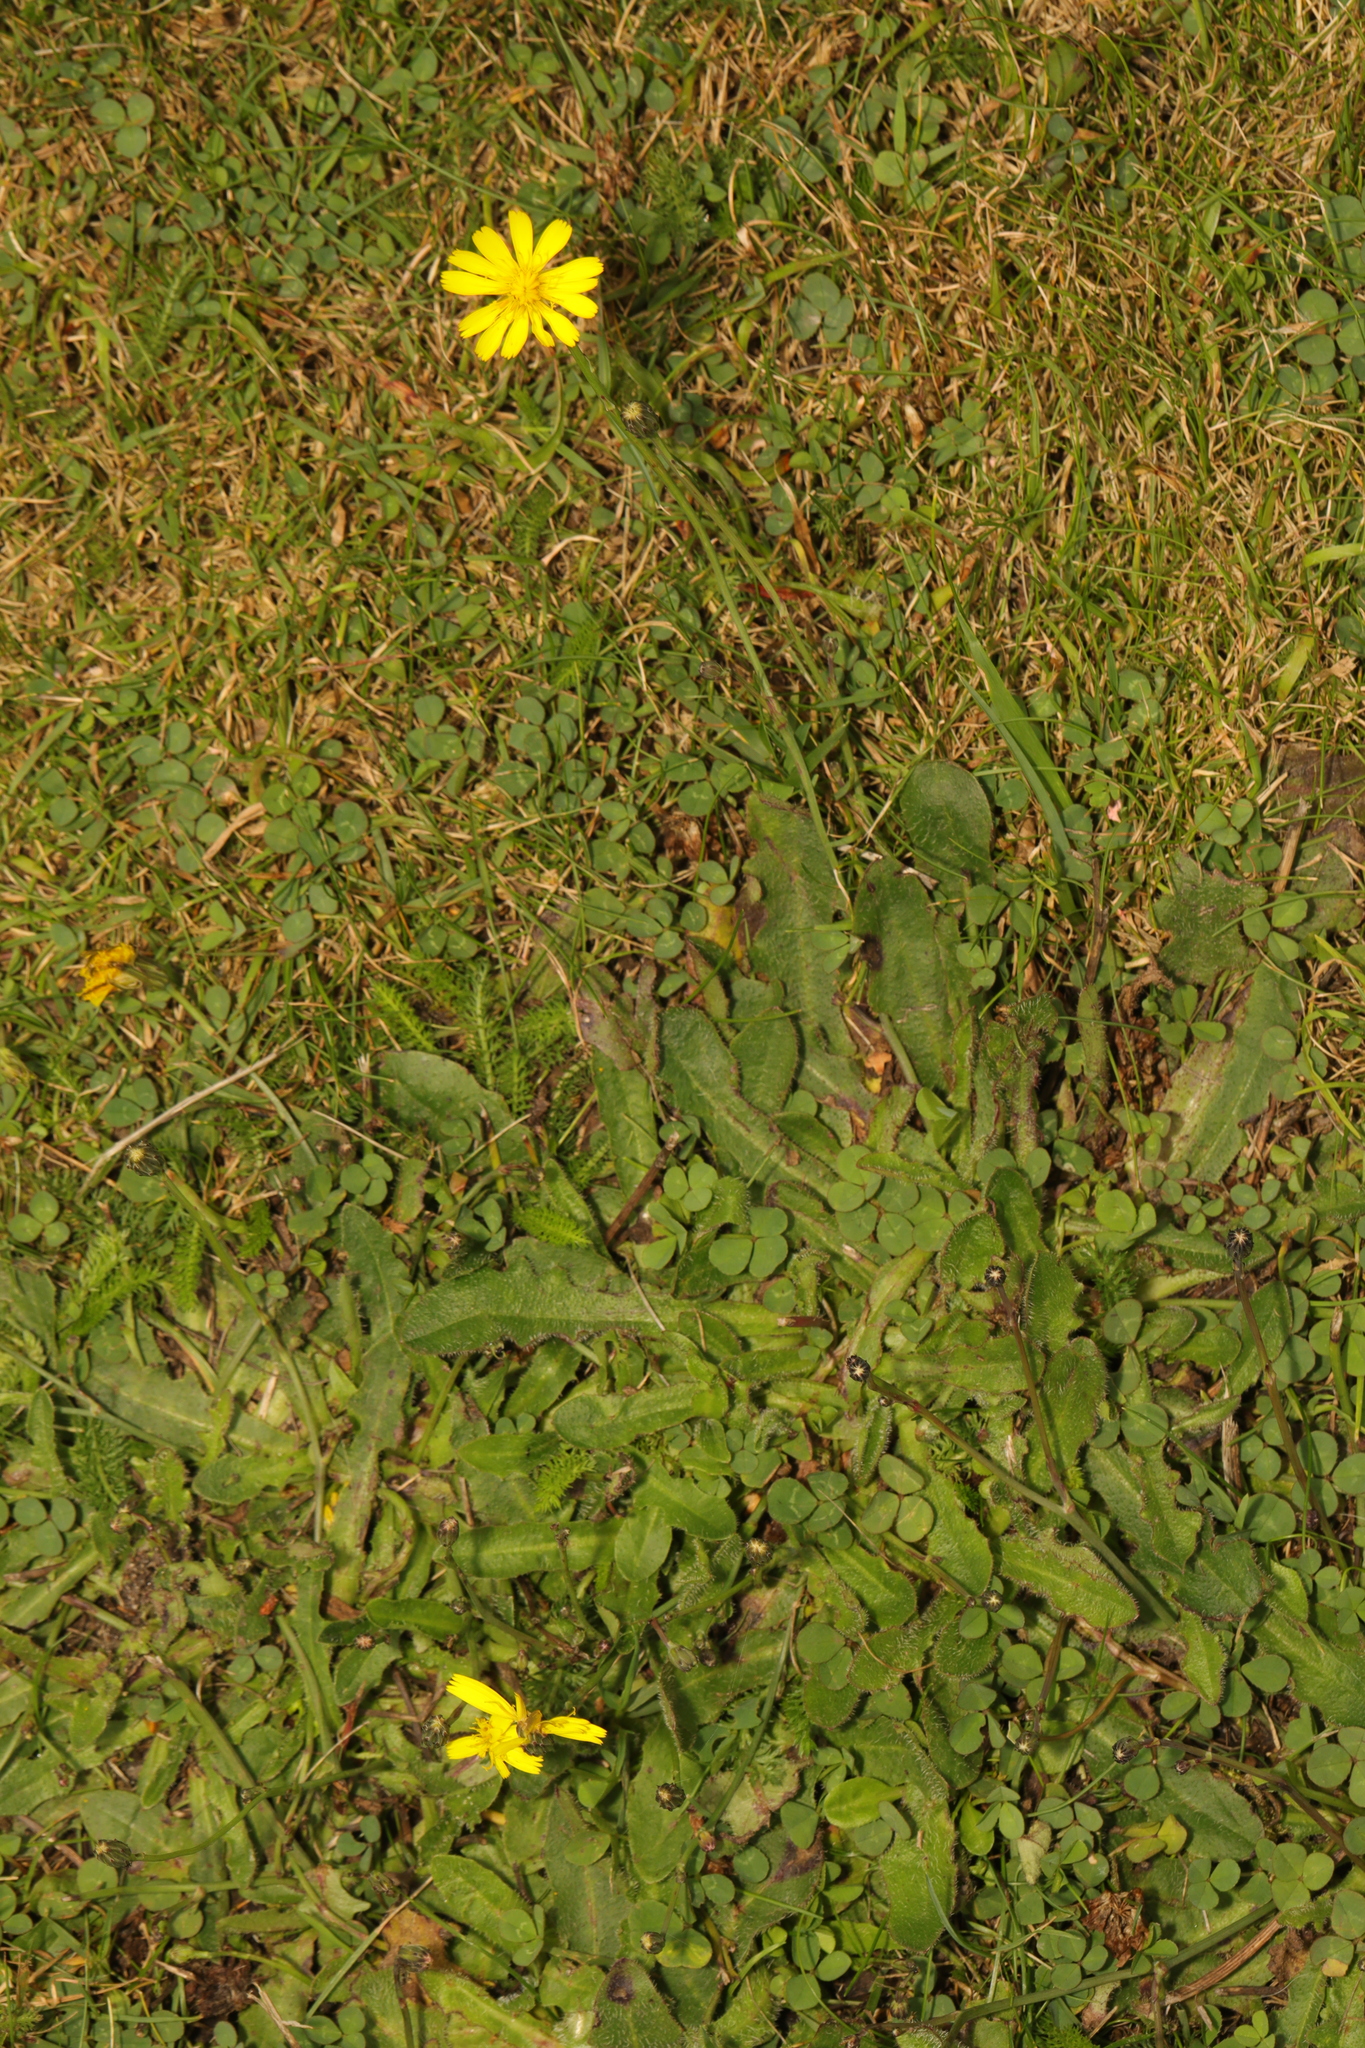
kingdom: Plantae
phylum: Tracheophyta
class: Magnoliopsida
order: Asterales
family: Asteraceae
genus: Hypochaeris
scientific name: Hypochaeris radicata
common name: Flatweed
